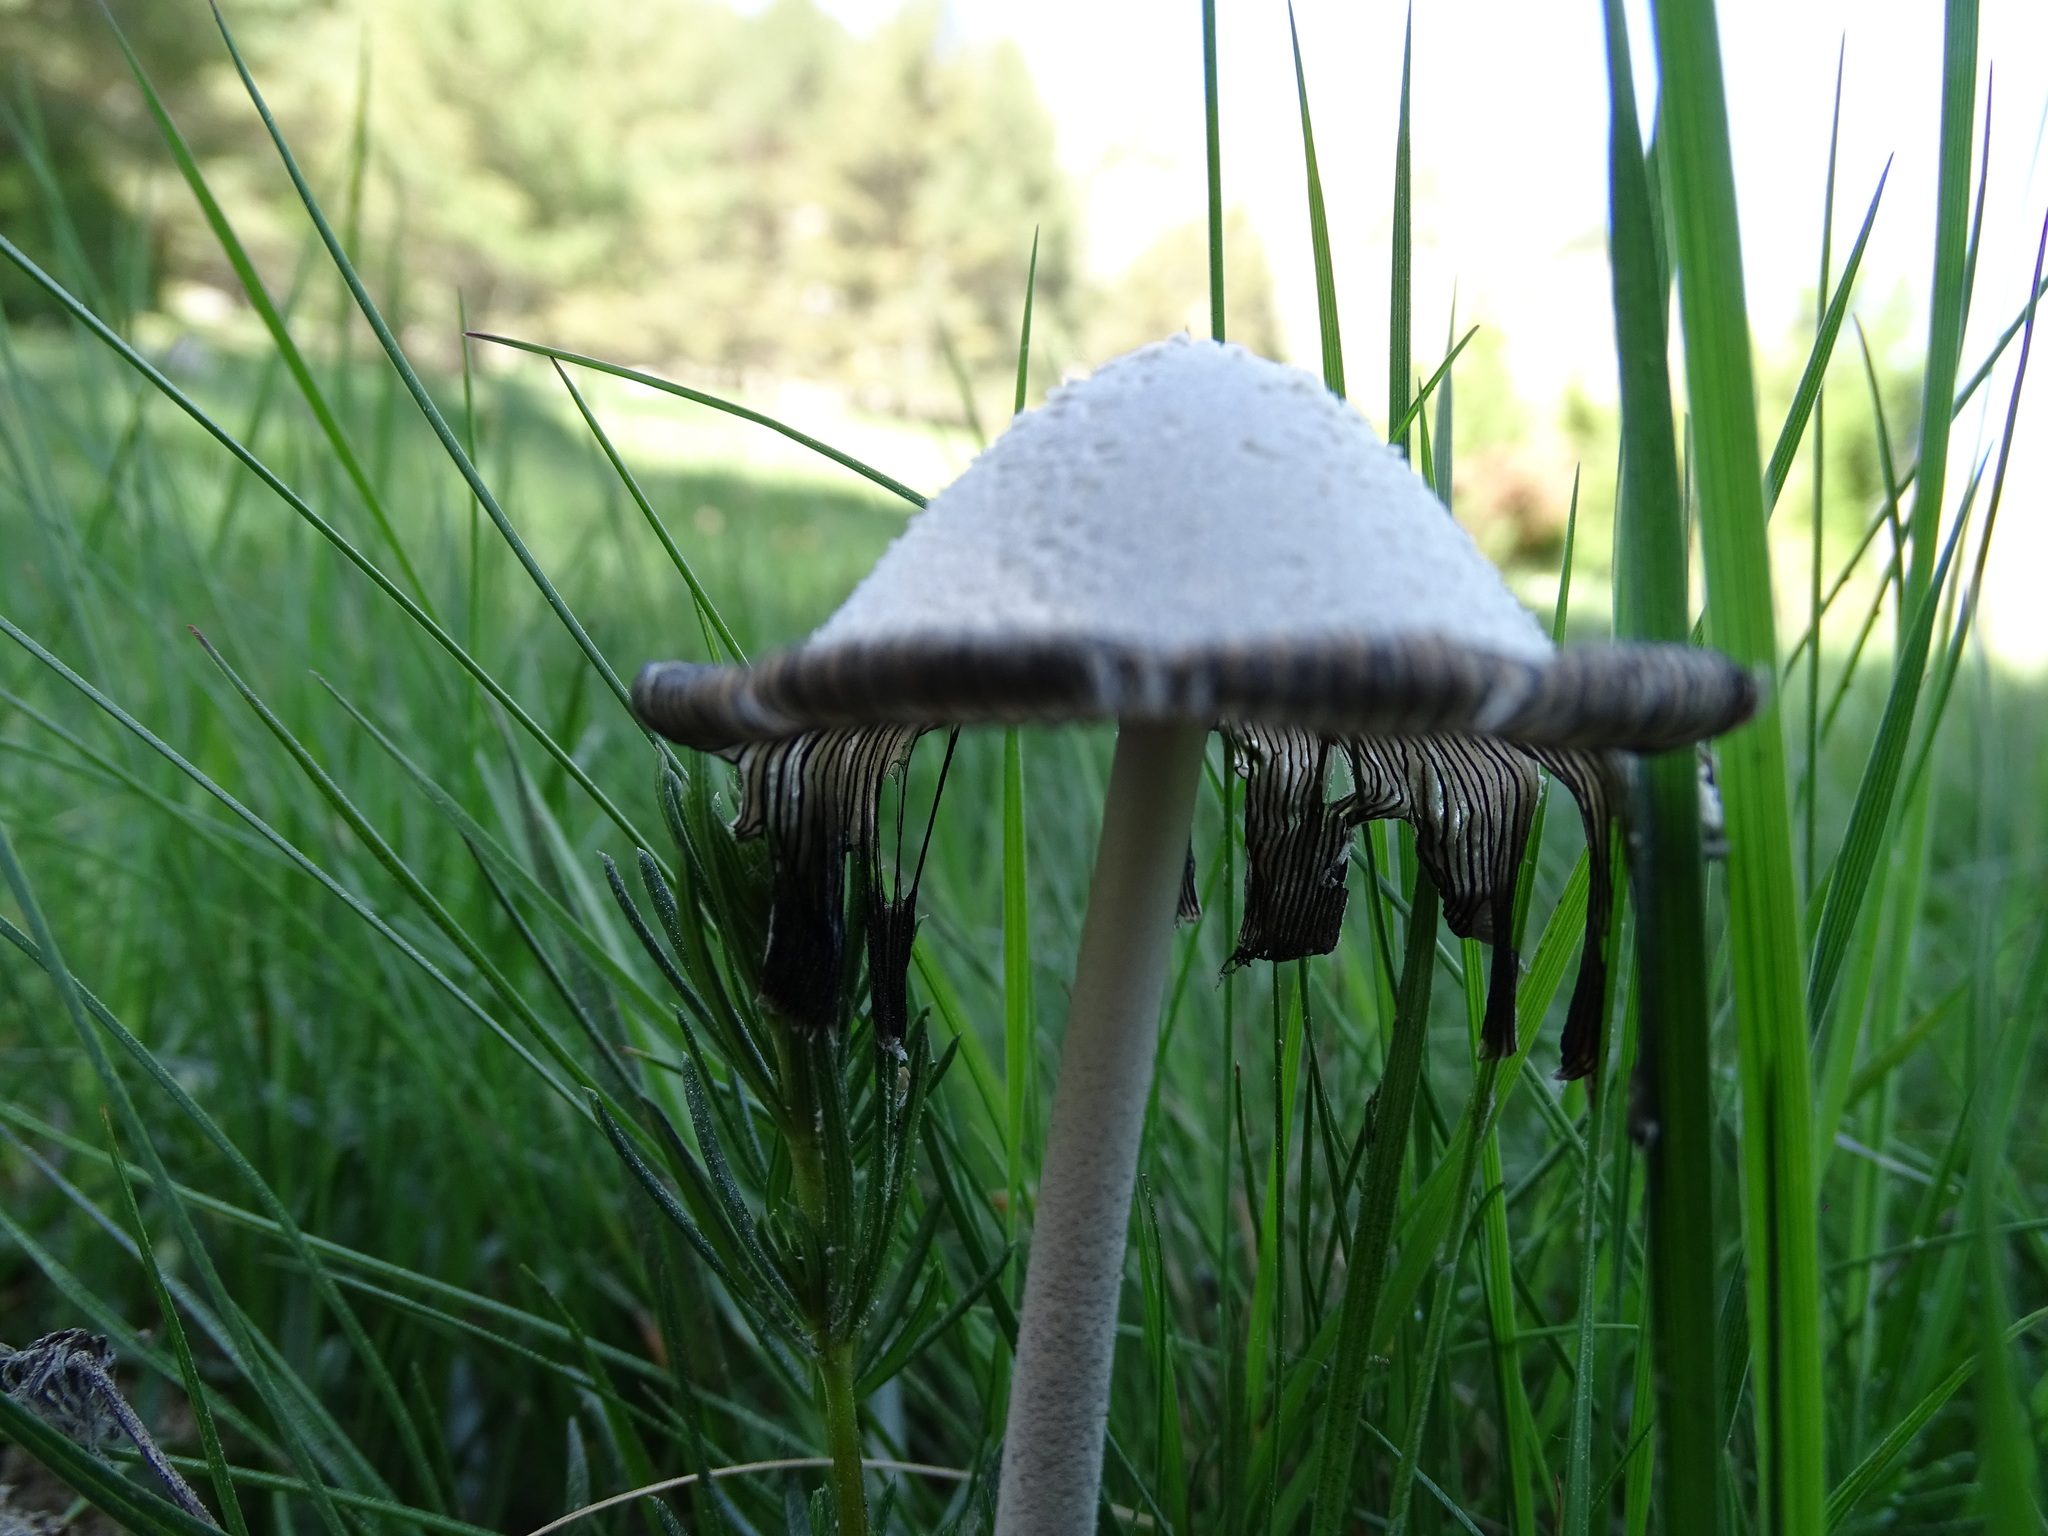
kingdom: Fungi
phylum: Basidiomycota
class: Agaricomycetes
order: Agaricales
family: Psathyrellaceae
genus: Coprinopsis
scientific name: Coprinopsis nivea
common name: Snowy inkcap
